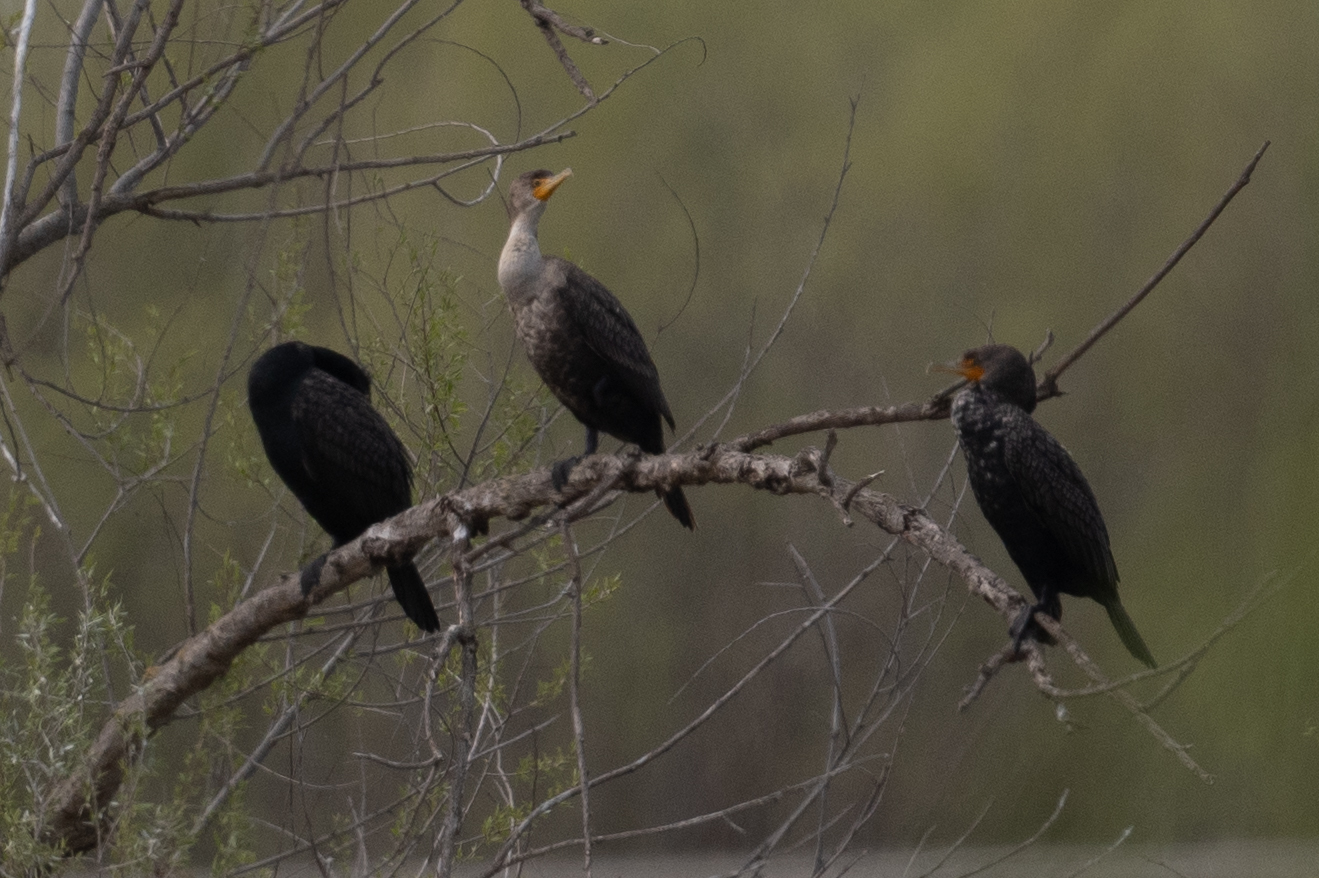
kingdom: Animalia
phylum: Chordata
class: Aves
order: Suliformes
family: Phalacrocoracidae
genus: Phalacrocorax
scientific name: Phalacrocorax auritus
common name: Double-crested cormorant
